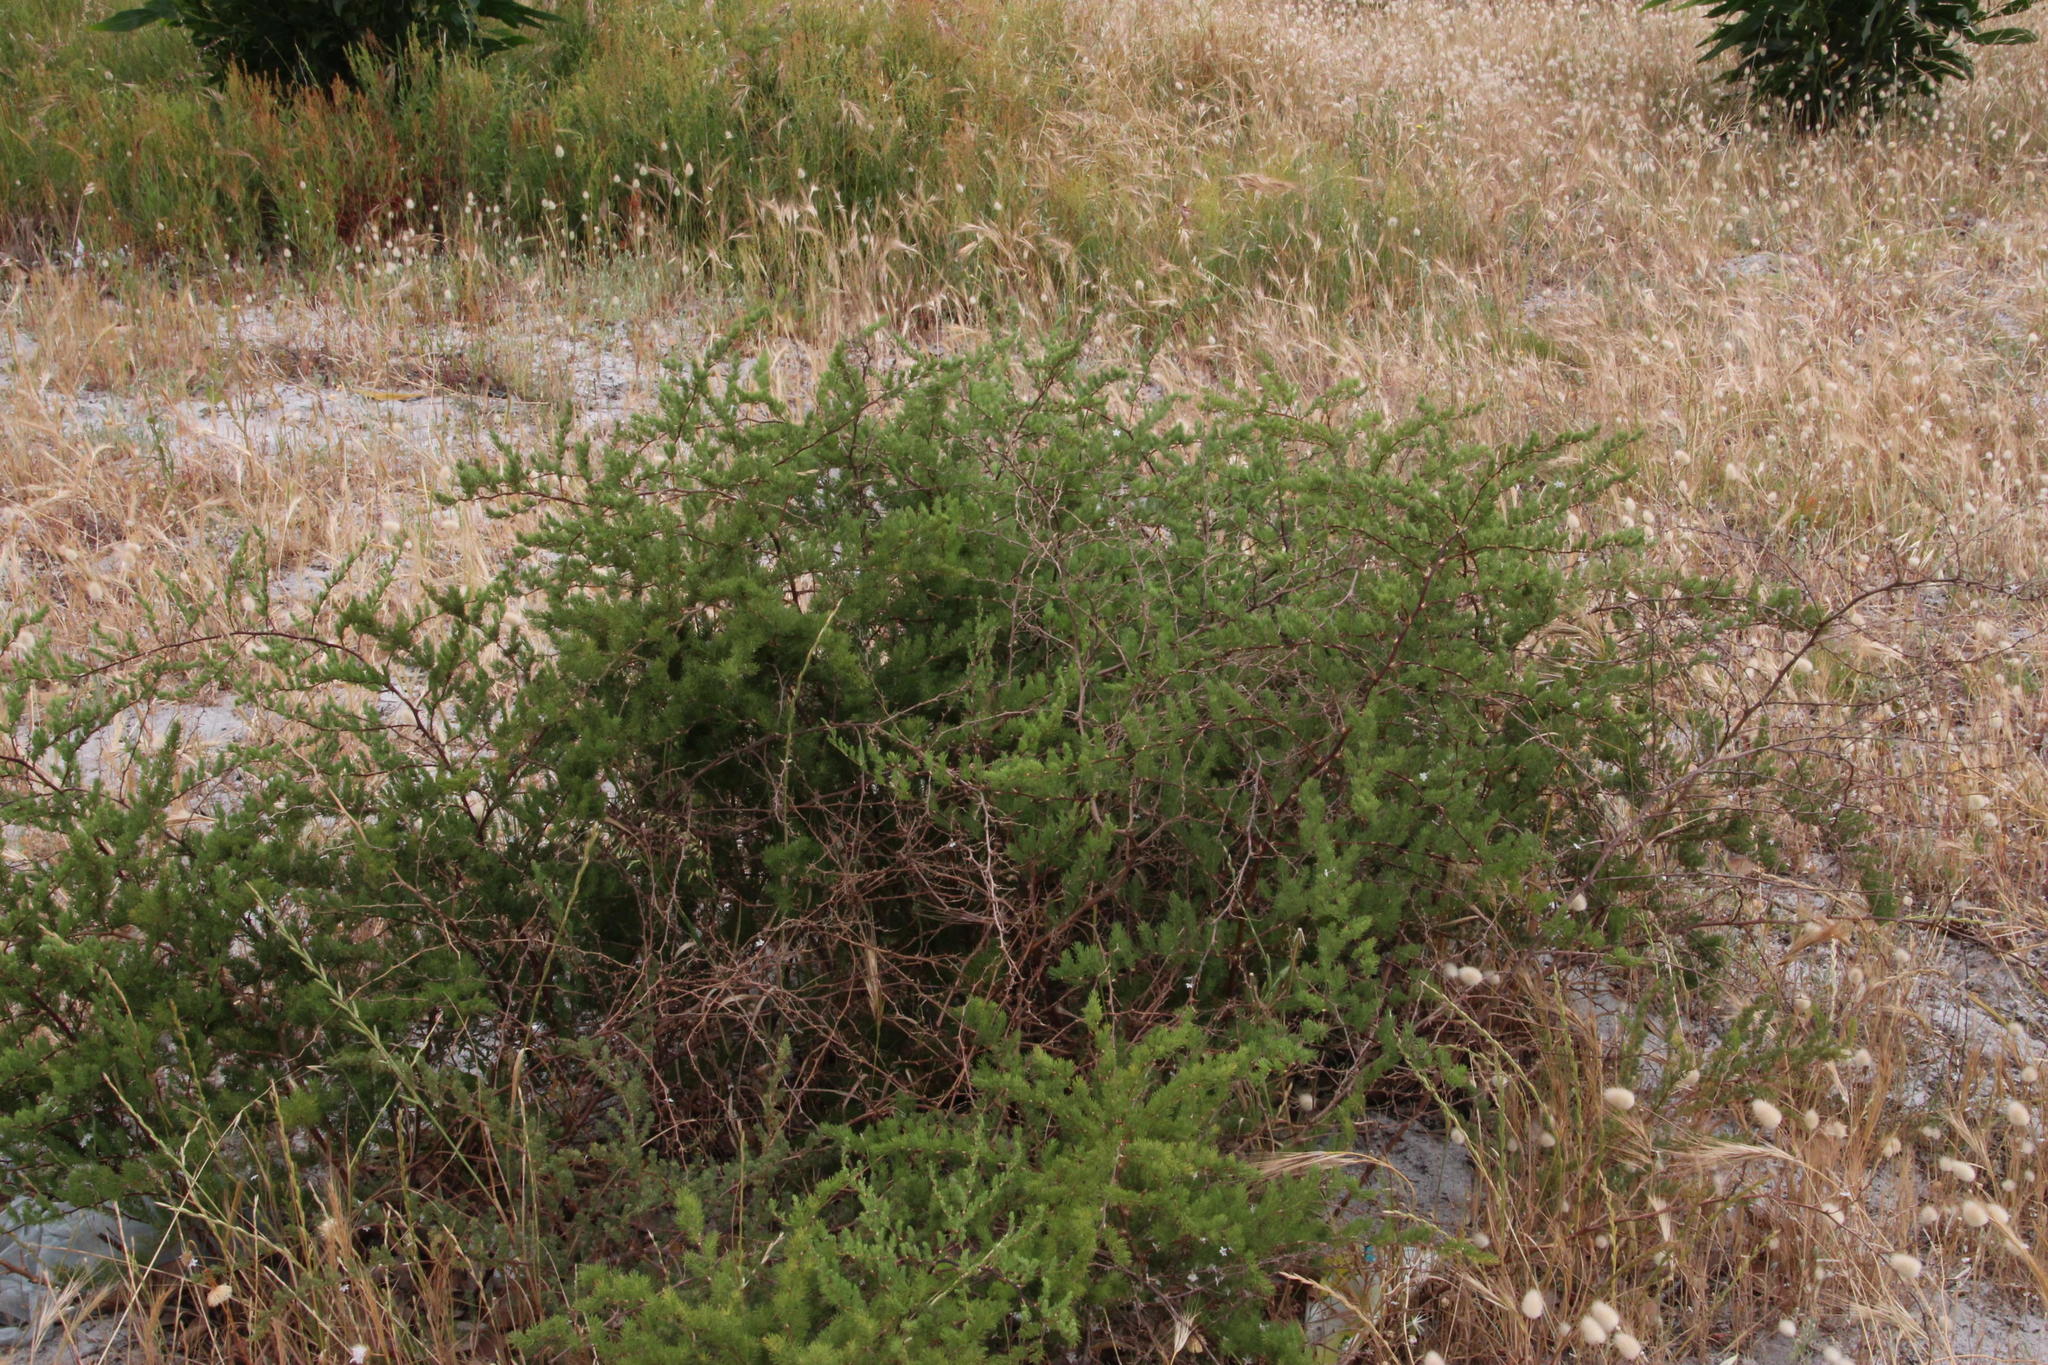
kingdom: Plantae
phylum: Tracheophyta
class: Liliopsida
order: Asparagales
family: Asparagaceae
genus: Asparagus
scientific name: Asparagus rubicundus
